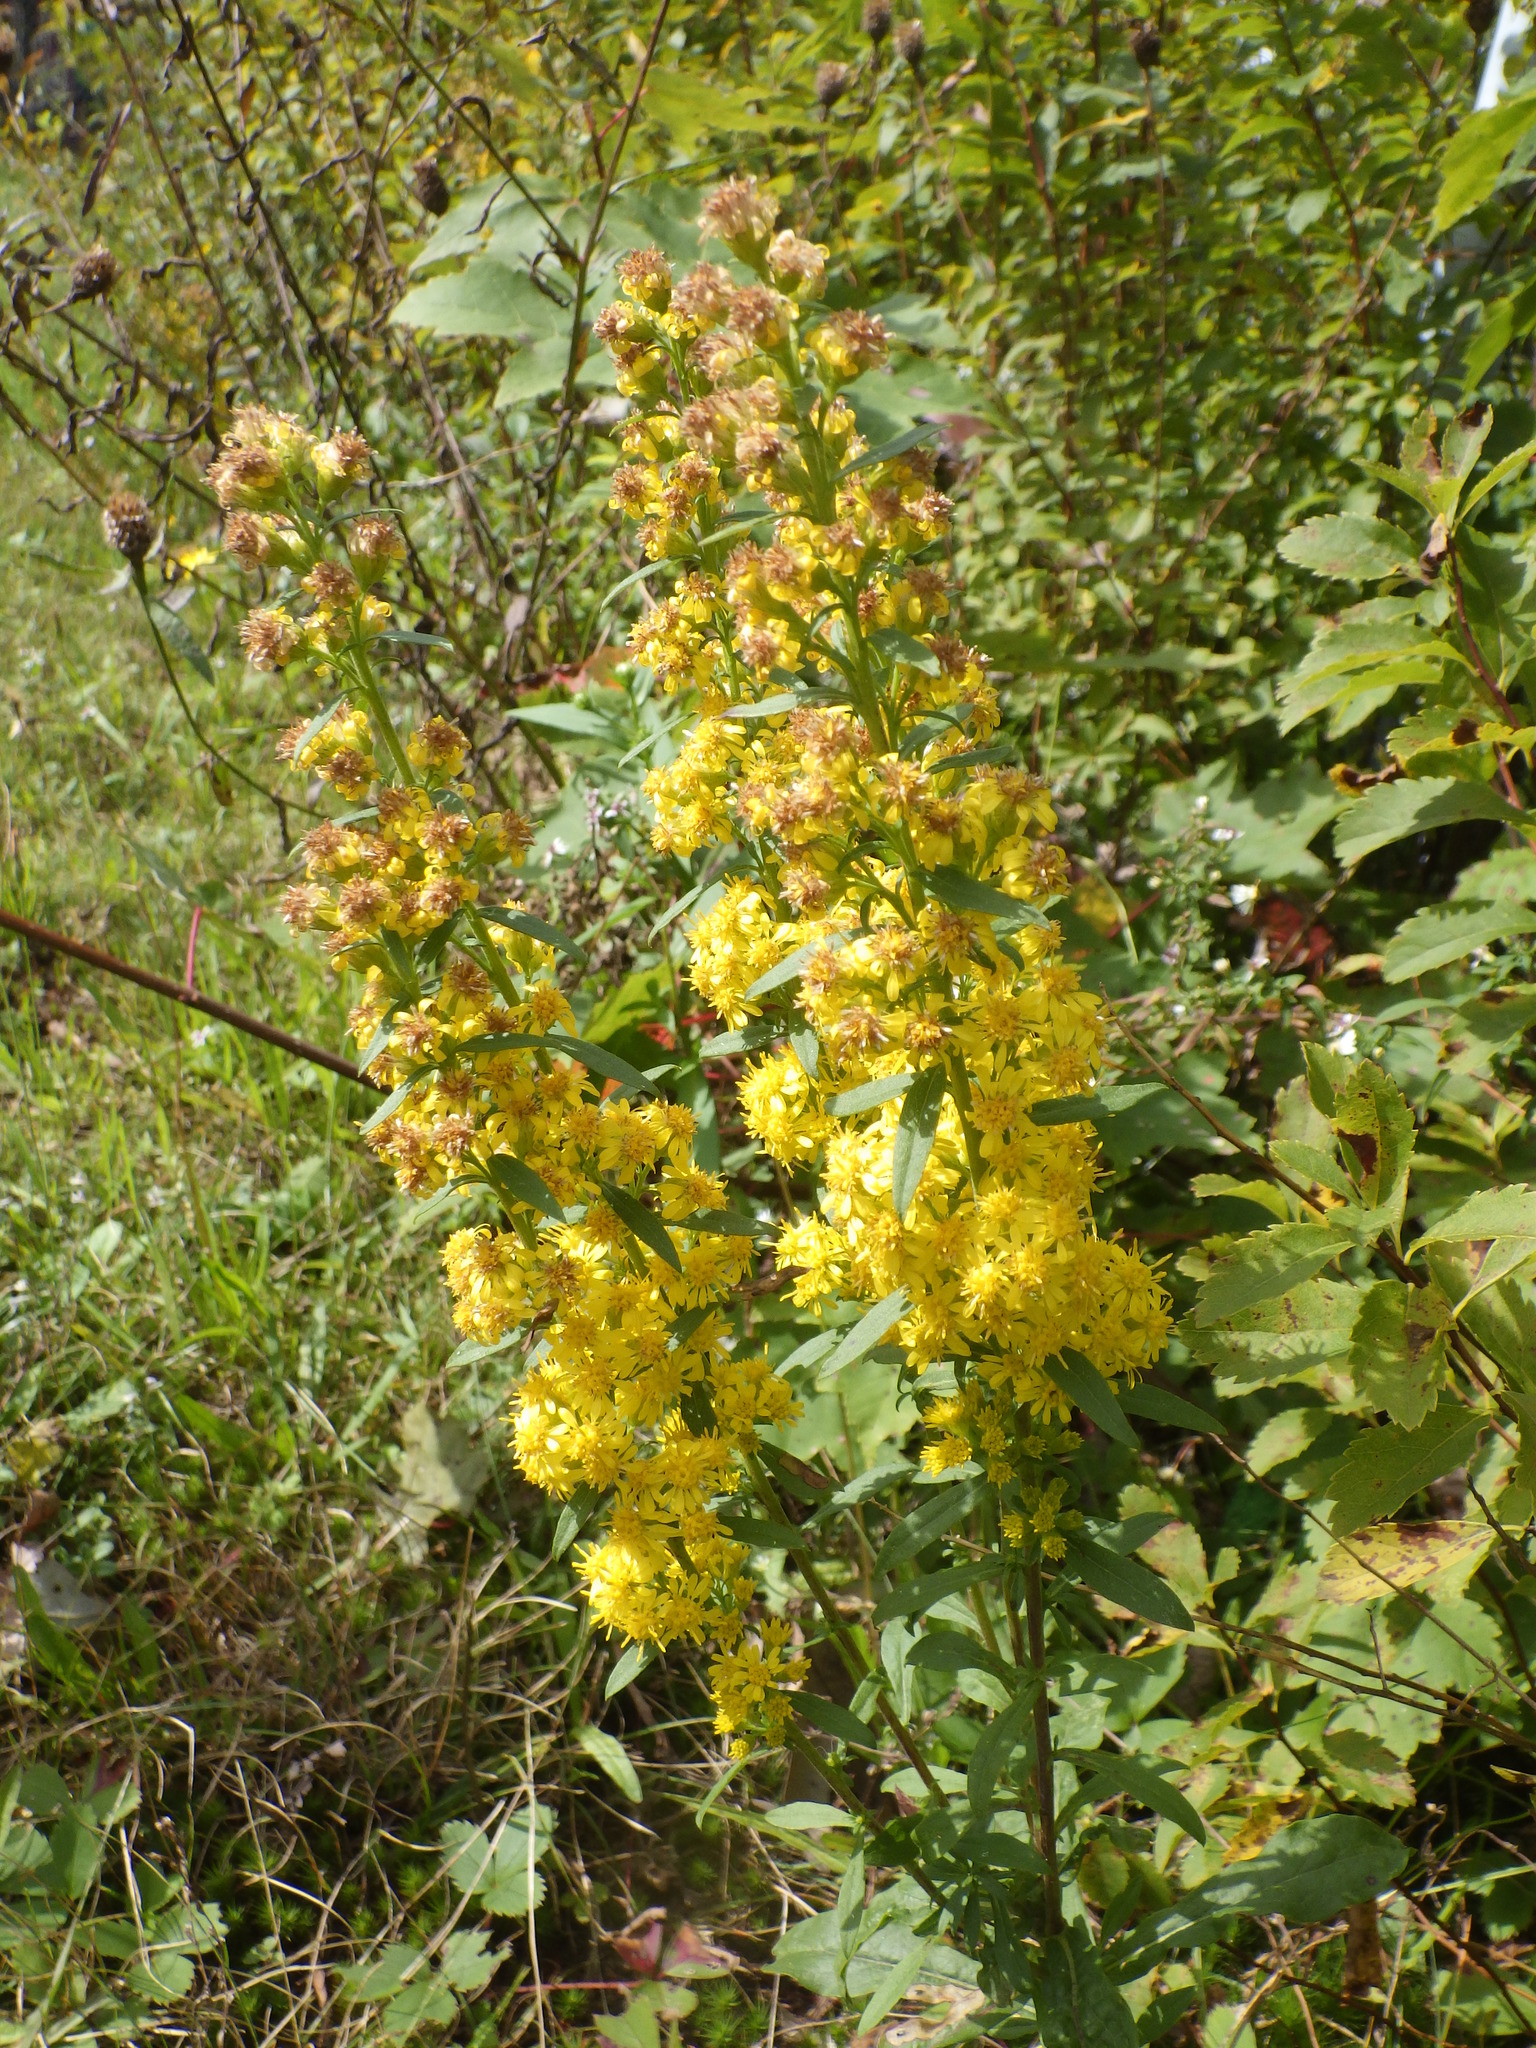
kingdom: Plantae
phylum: Tracheophyta
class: Magnoliopsida
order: Asterales
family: Asteraceae
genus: Solidago
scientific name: Solidago puberula
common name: Downy goldenrod
